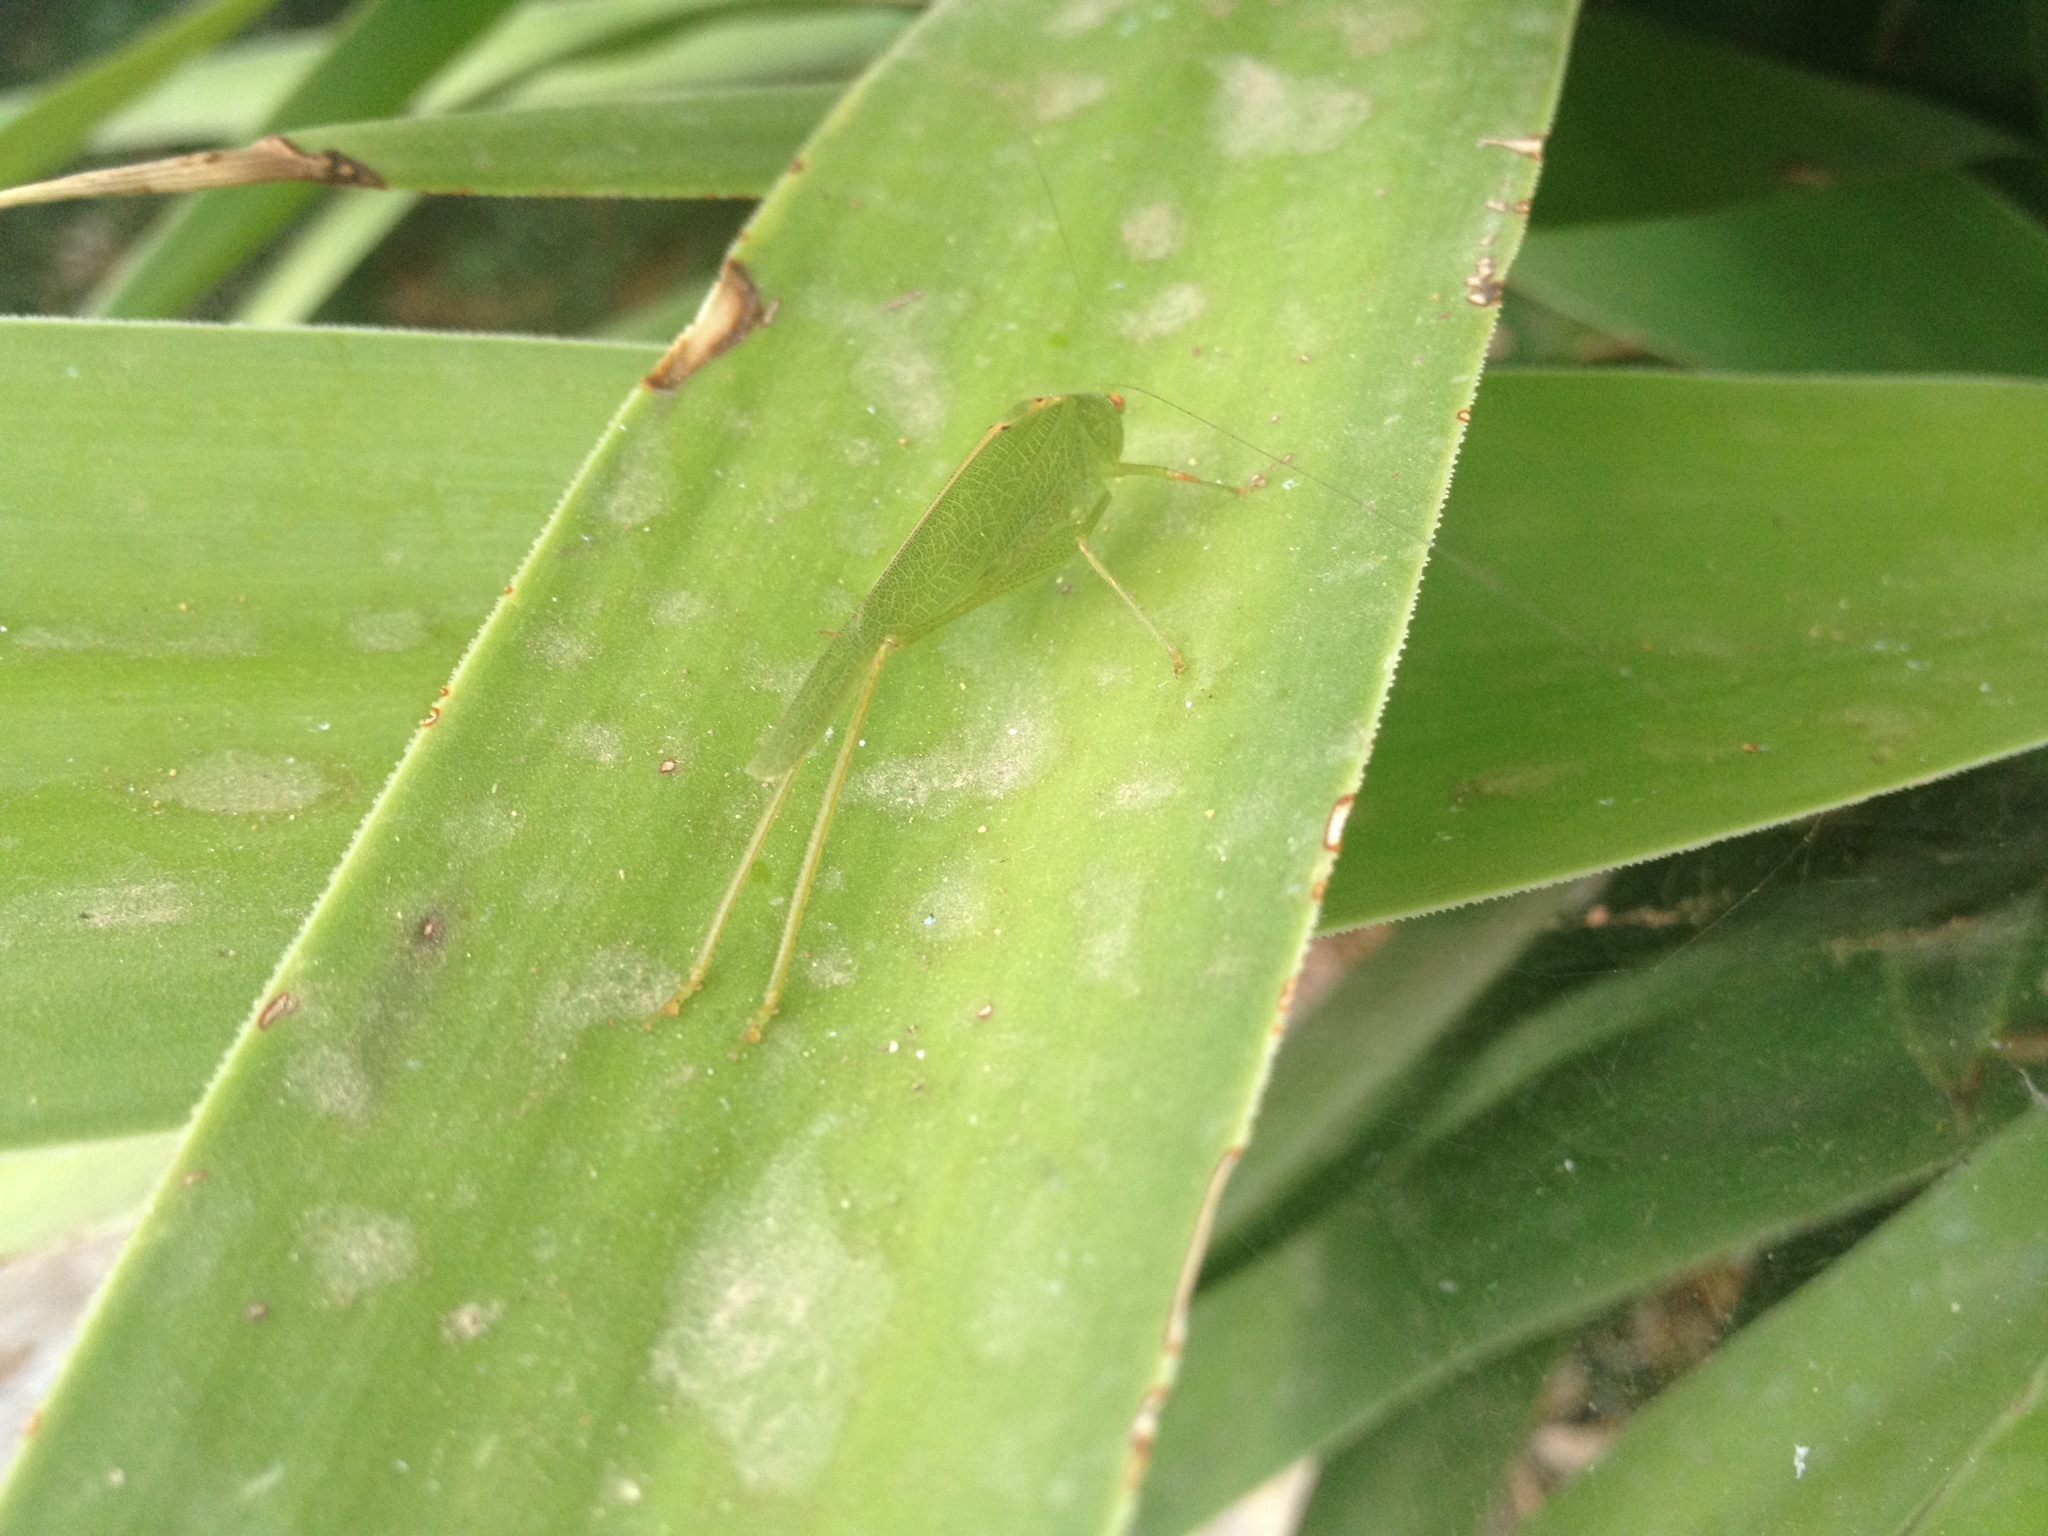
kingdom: Animalia
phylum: Arthropoda
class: Insecta
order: Orthoptera
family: Tettigoniidae
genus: Phaneroptera
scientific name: Phaneroptera nana
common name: Southern sickle bush-cricket
